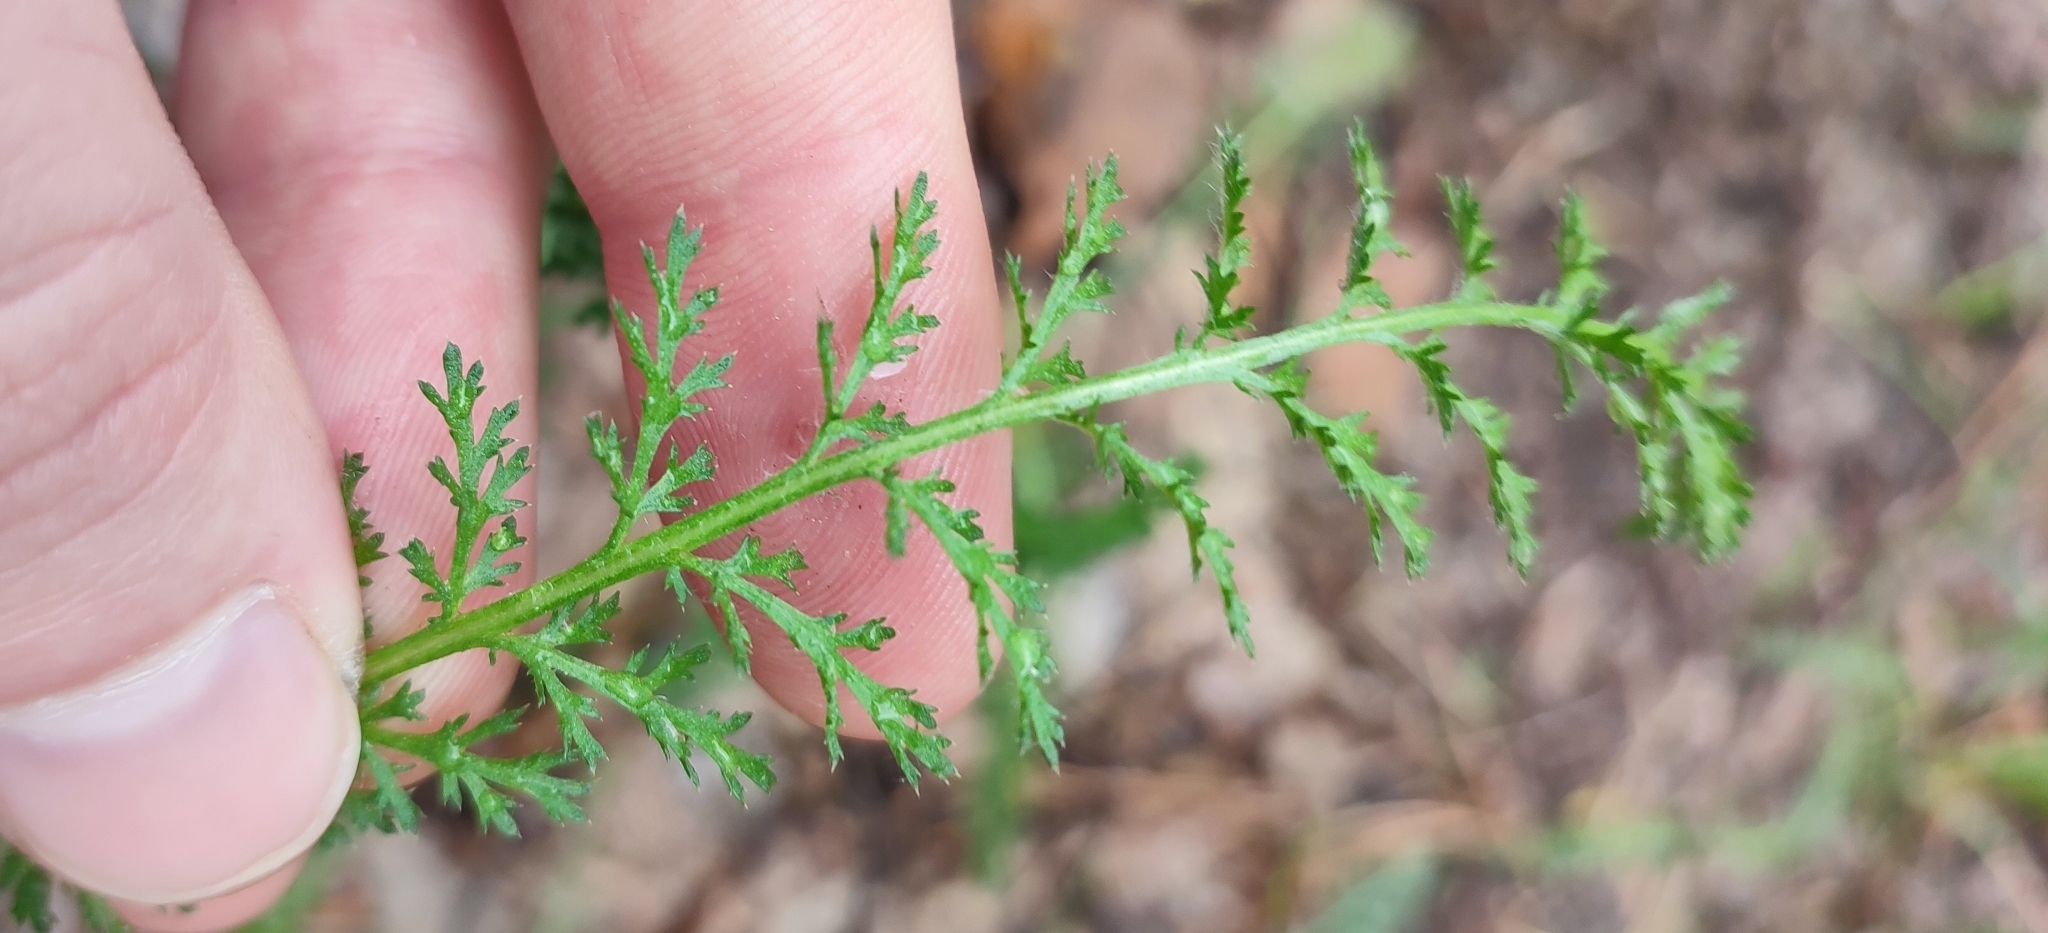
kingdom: Plantae
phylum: Tracheophyta
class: Magnoliopsida
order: Asterales
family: Asteraceae
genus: Achillea
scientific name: Achillea
